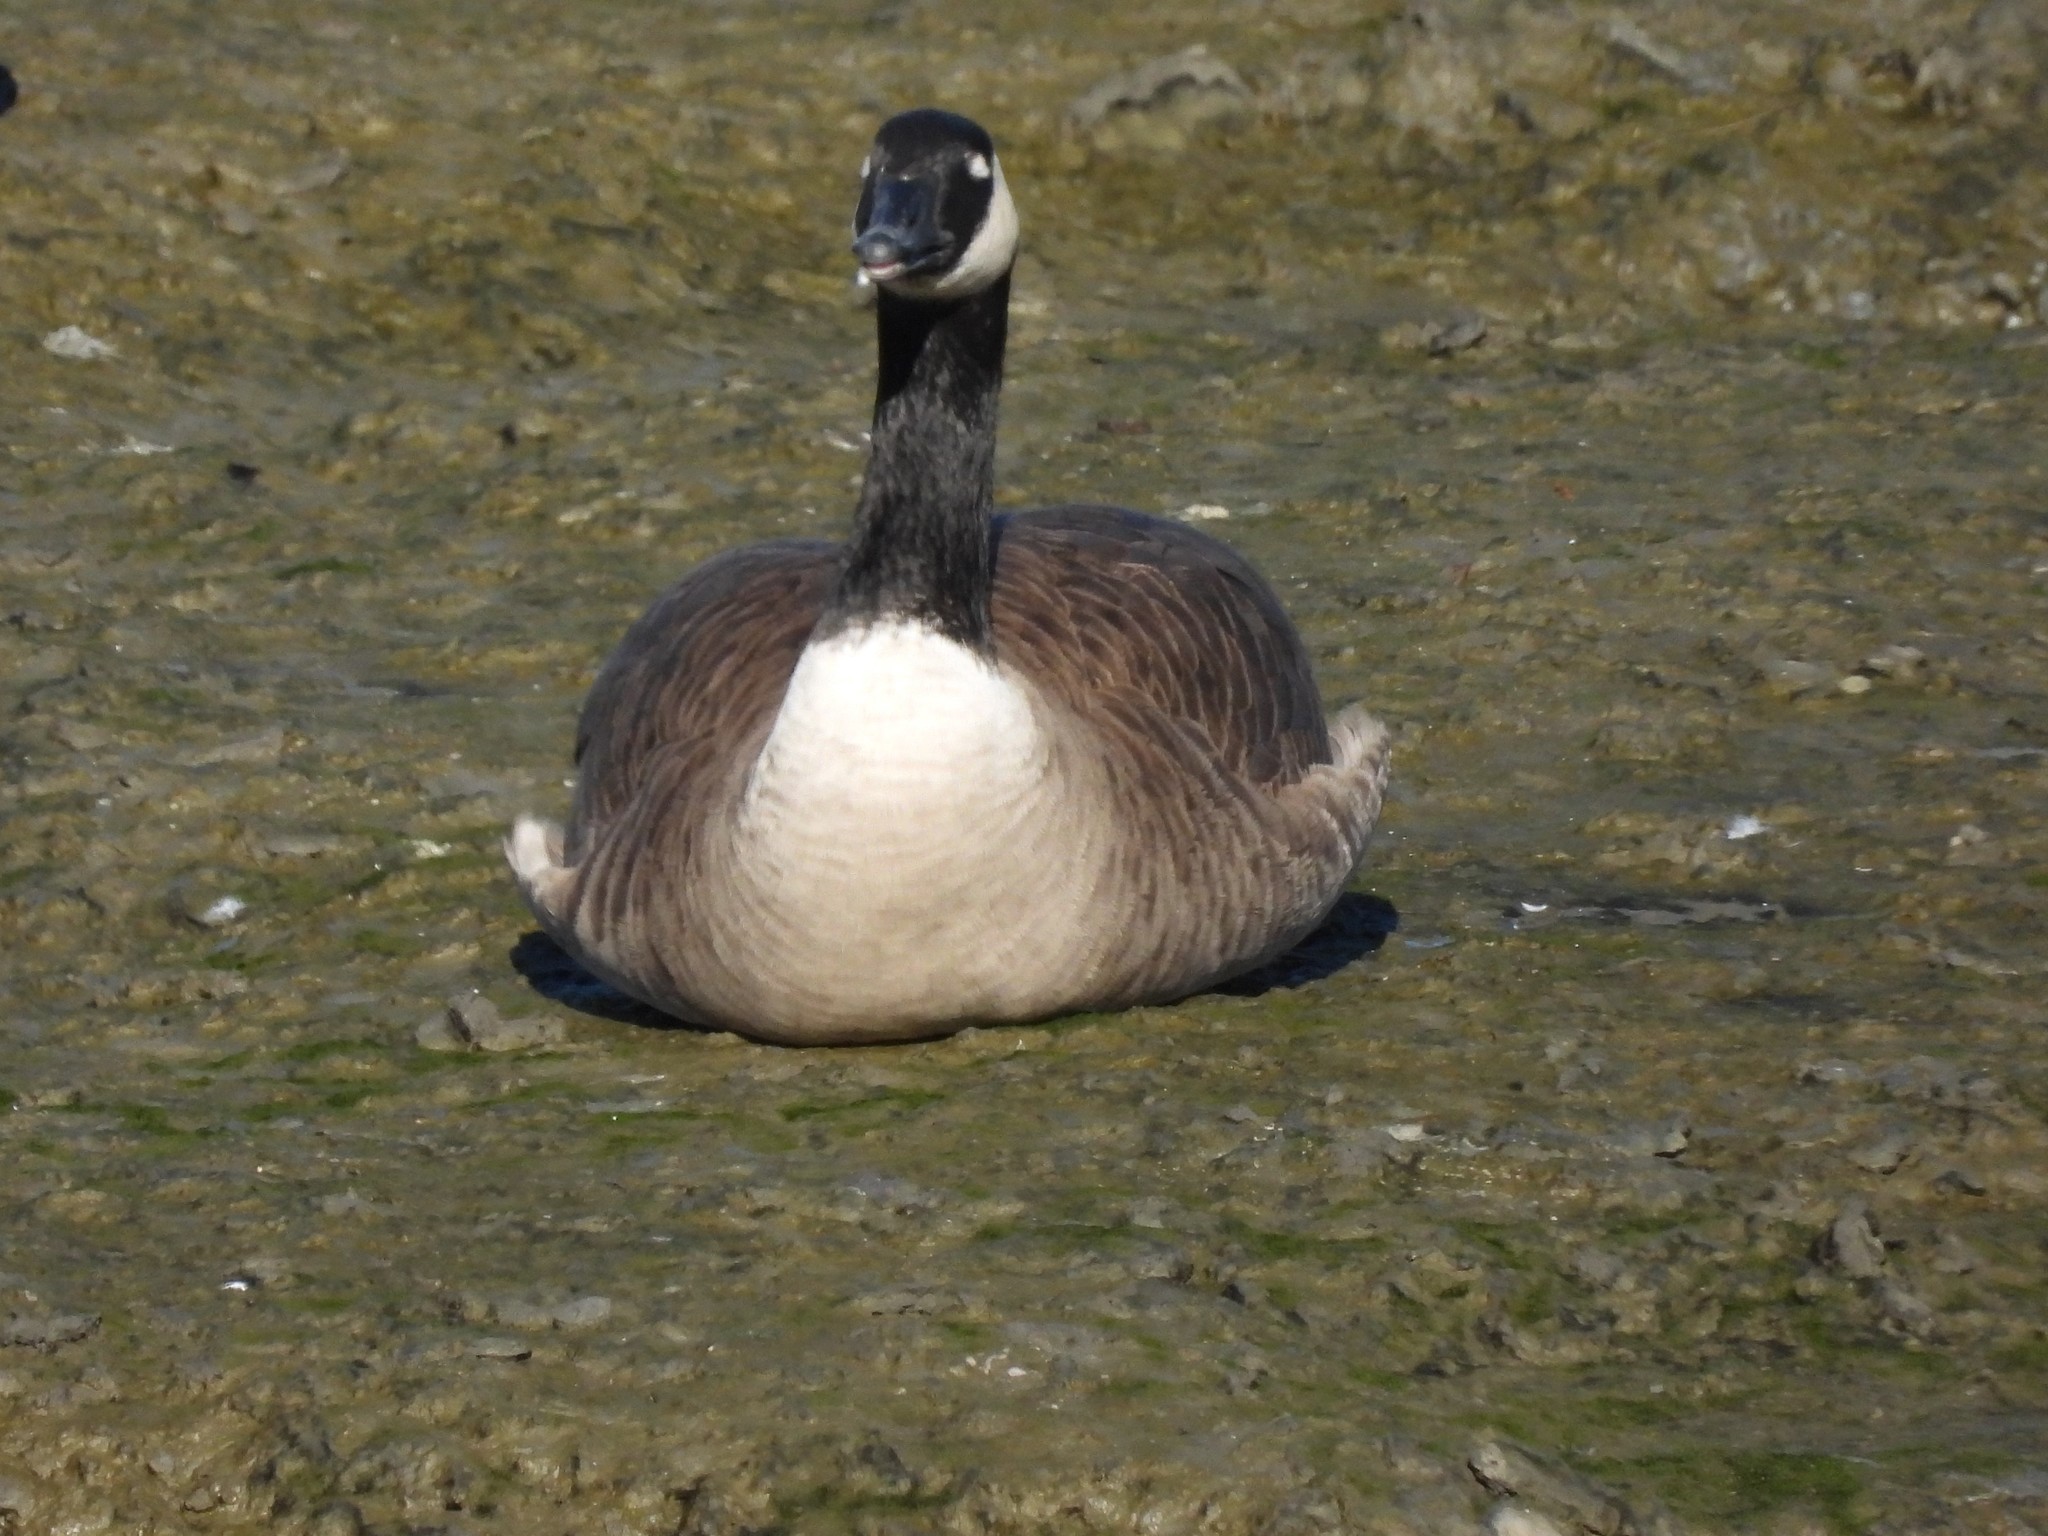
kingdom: Animalia
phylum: Chordata
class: Aves
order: Anseriformes
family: Anatidae
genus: Branta
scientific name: Branta canadensis
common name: Canada goose
